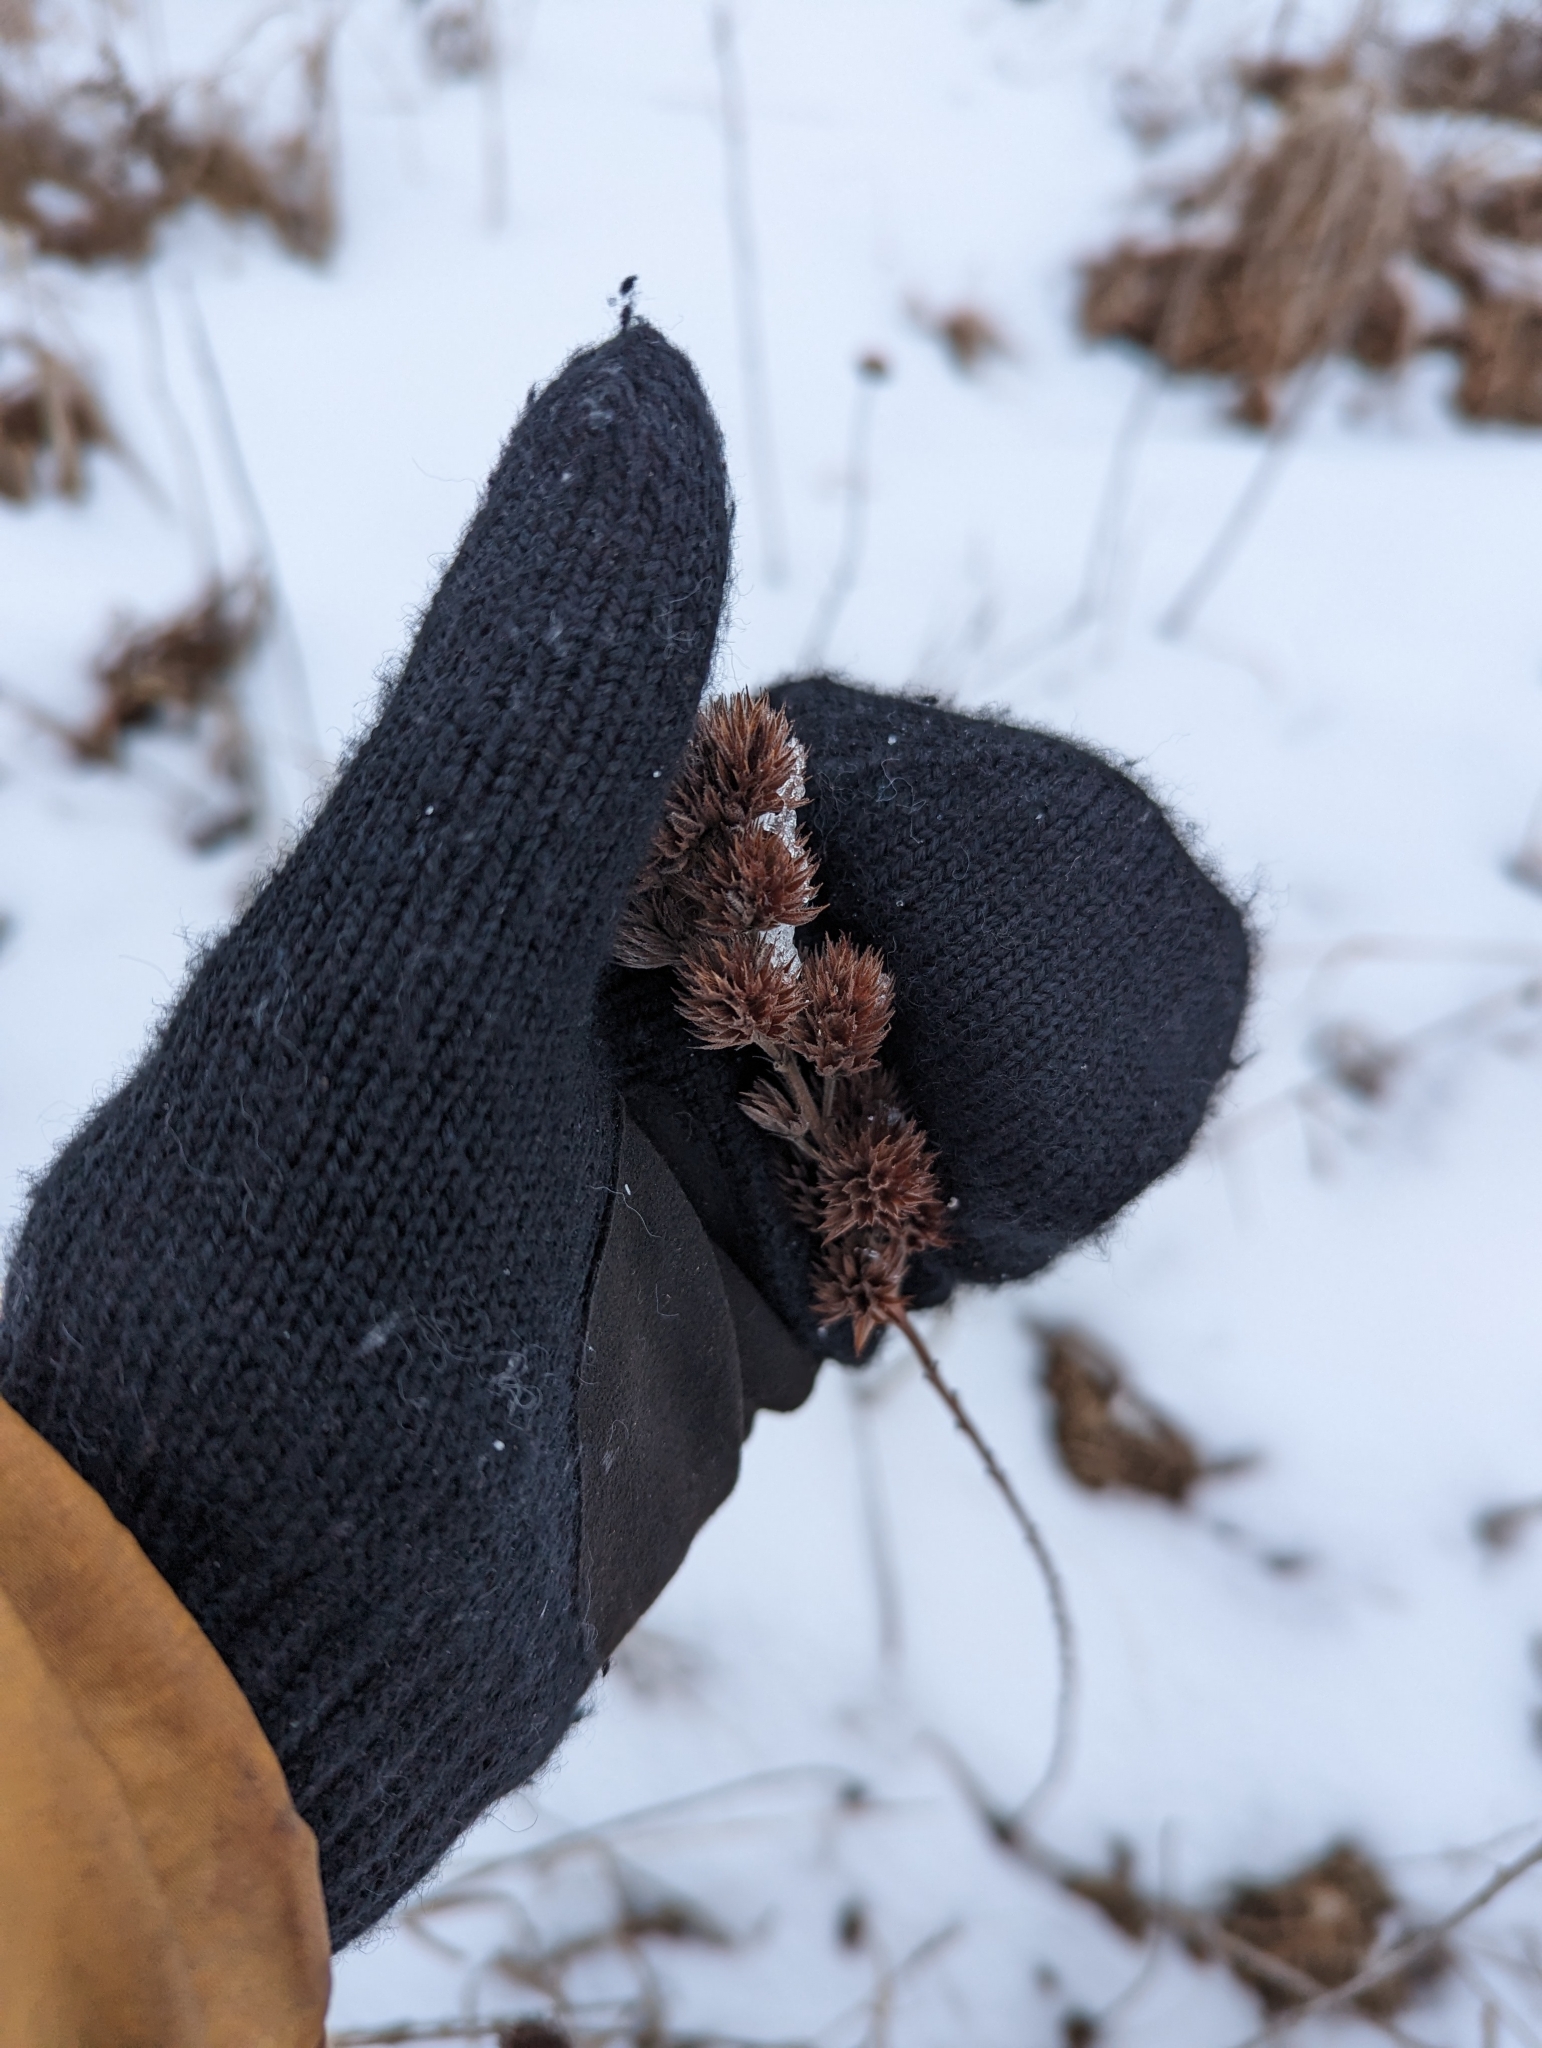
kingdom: Plantae
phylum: Tracheophyta
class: Magnoliopsida
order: Fabales
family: Fabaceae
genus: Lespedeza
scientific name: Lespedeza capitata
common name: Dusty clover
